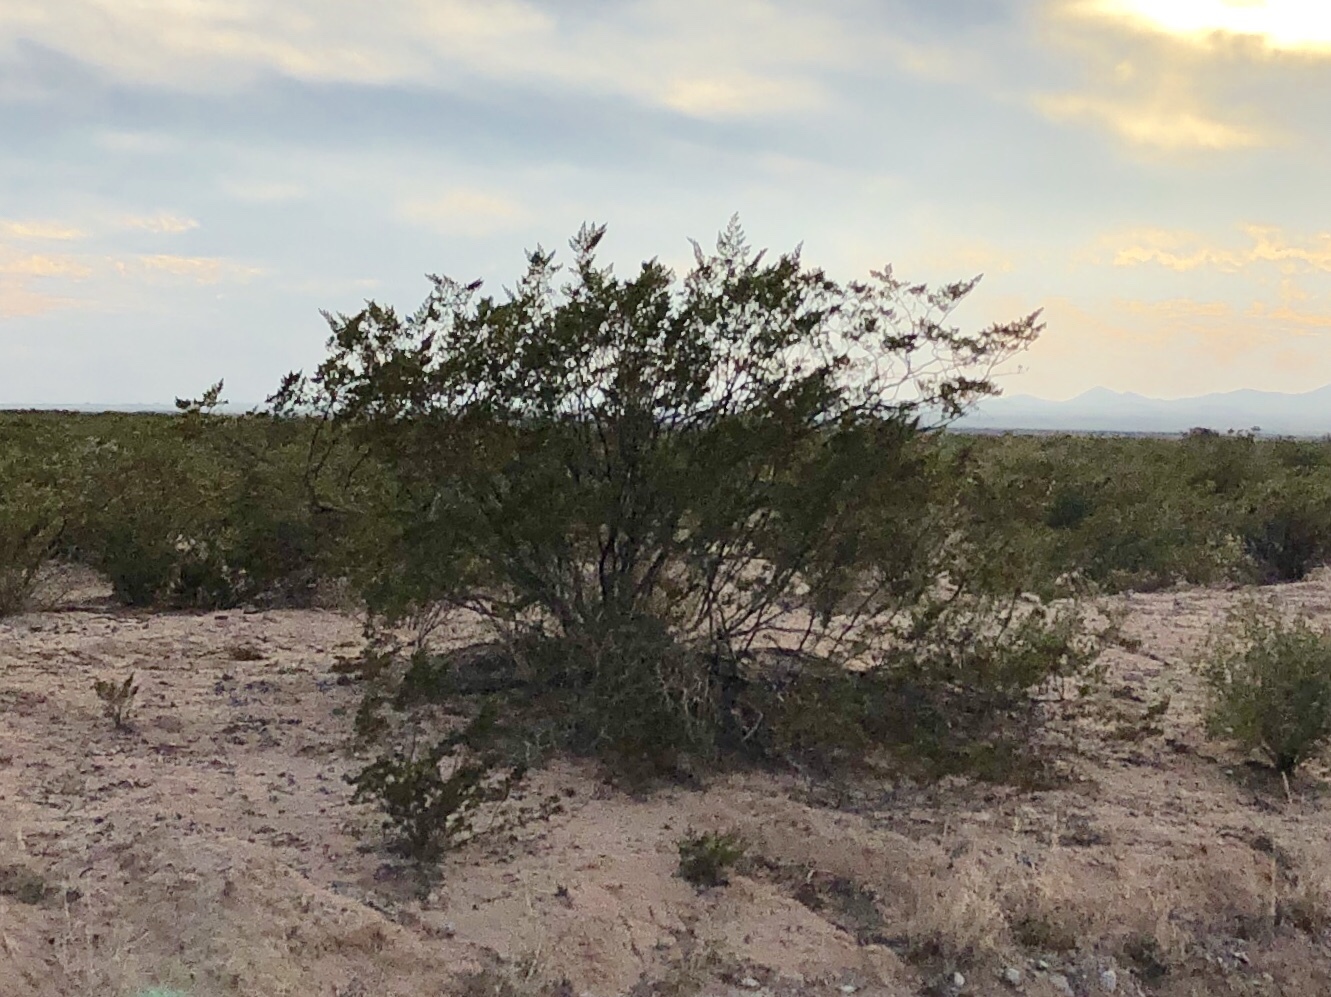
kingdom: Plantae
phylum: Tracheophyta
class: Magnoliopsida
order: Zygophyllales
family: Zygophyllaceae
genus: Larrea
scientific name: Larrea tridentata
